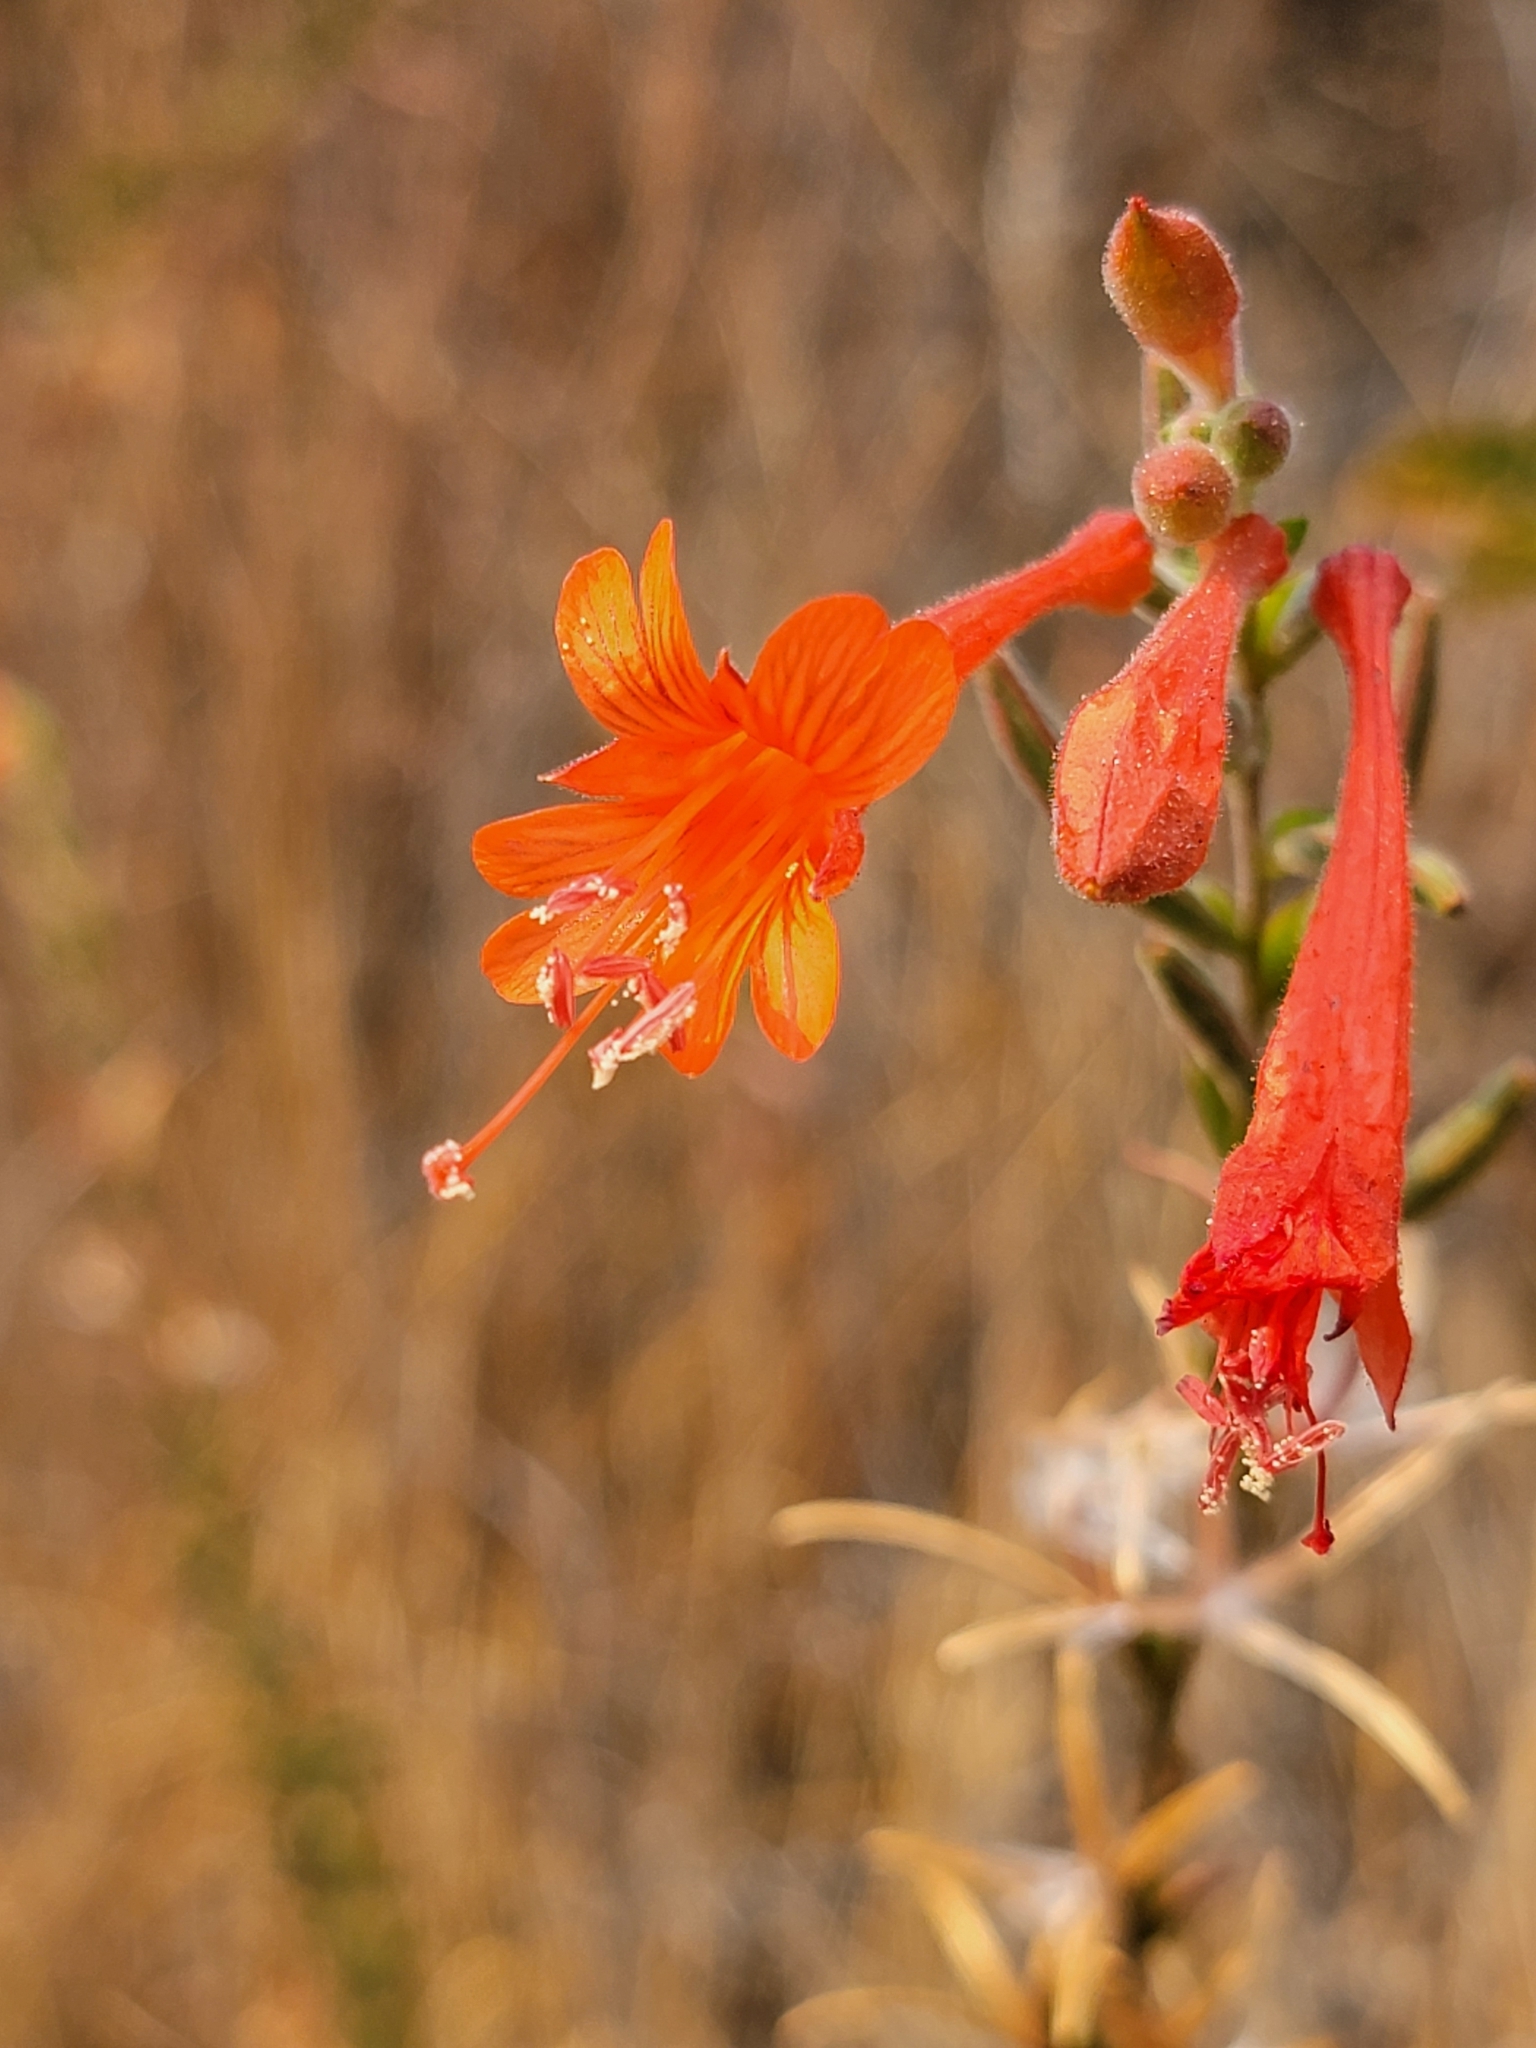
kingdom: Plantae
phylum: Tracheophyta
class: Magnoliopsida
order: Myrtales
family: Onagraceae
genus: Epilobium
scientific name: Epilobium canum
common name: California-fuchsia
